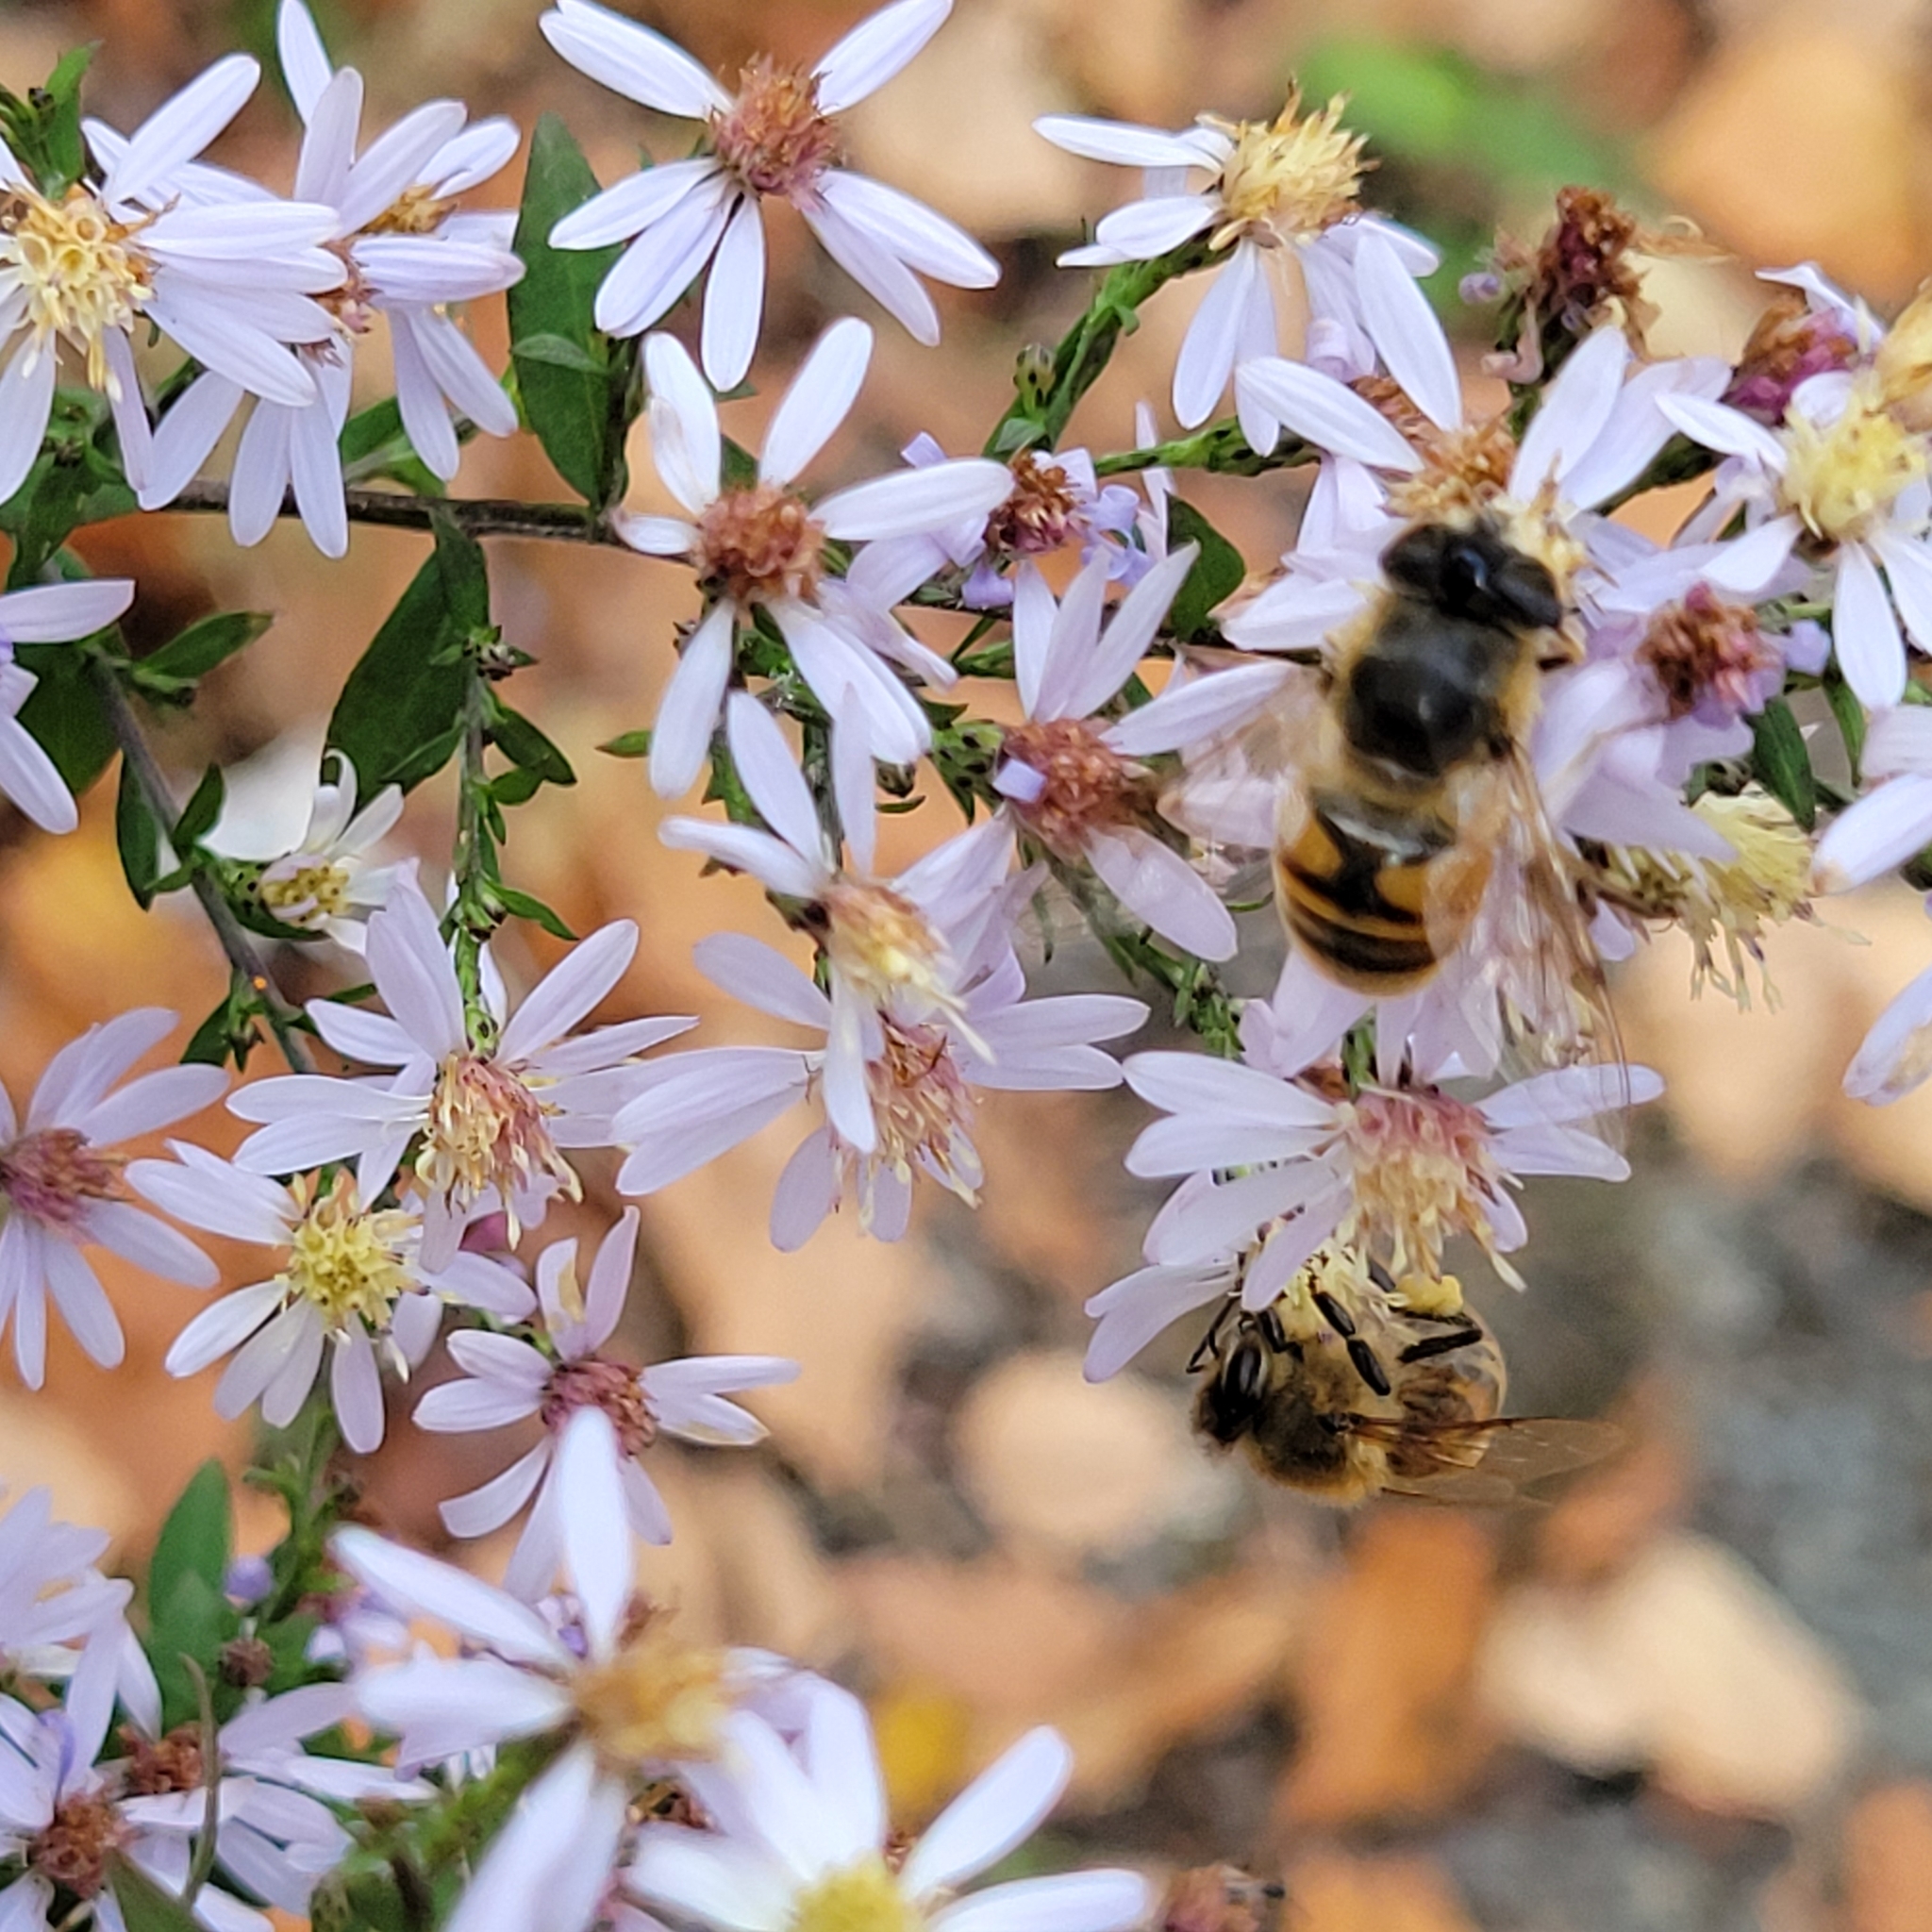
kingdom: Animalia
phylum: Arthropoda
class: Insecta
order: Diptera
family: Syrphidae
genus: Eristalis
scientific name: Eristalis tenax
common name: Drone fly
